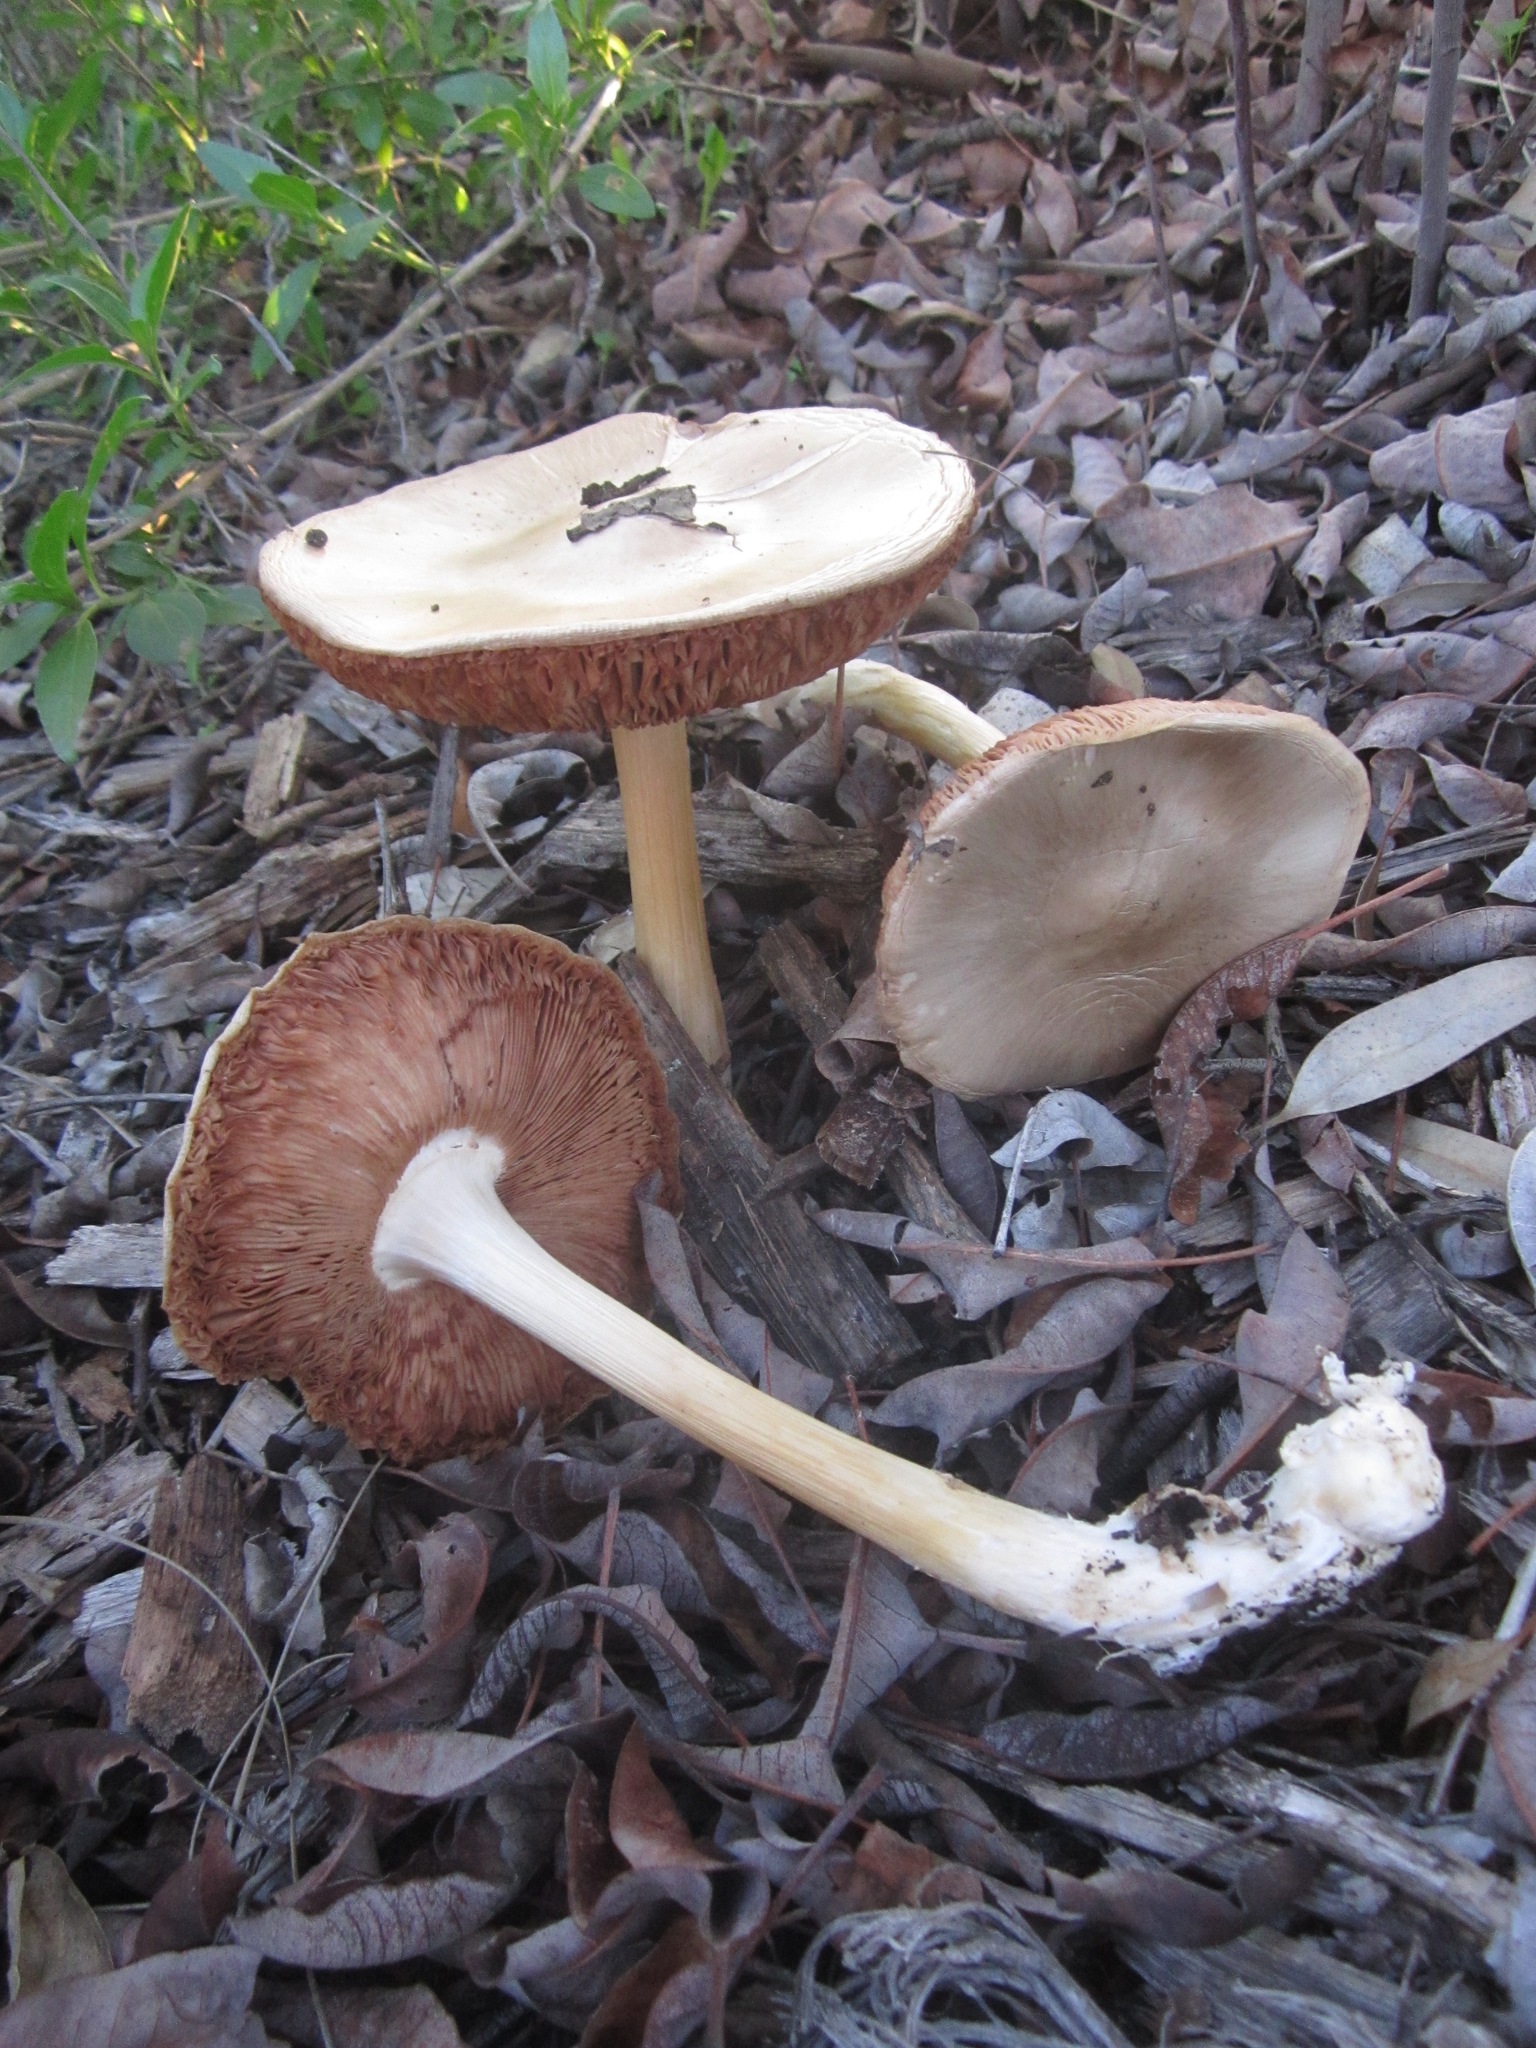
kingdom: Fungi
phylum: Basidiomycota
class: Agaricomycetes
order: Agaricales
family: Pluteaceae
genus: Volvopluteus
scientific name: Volvopluteus gloiocephalus
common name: Stubble rosegill
